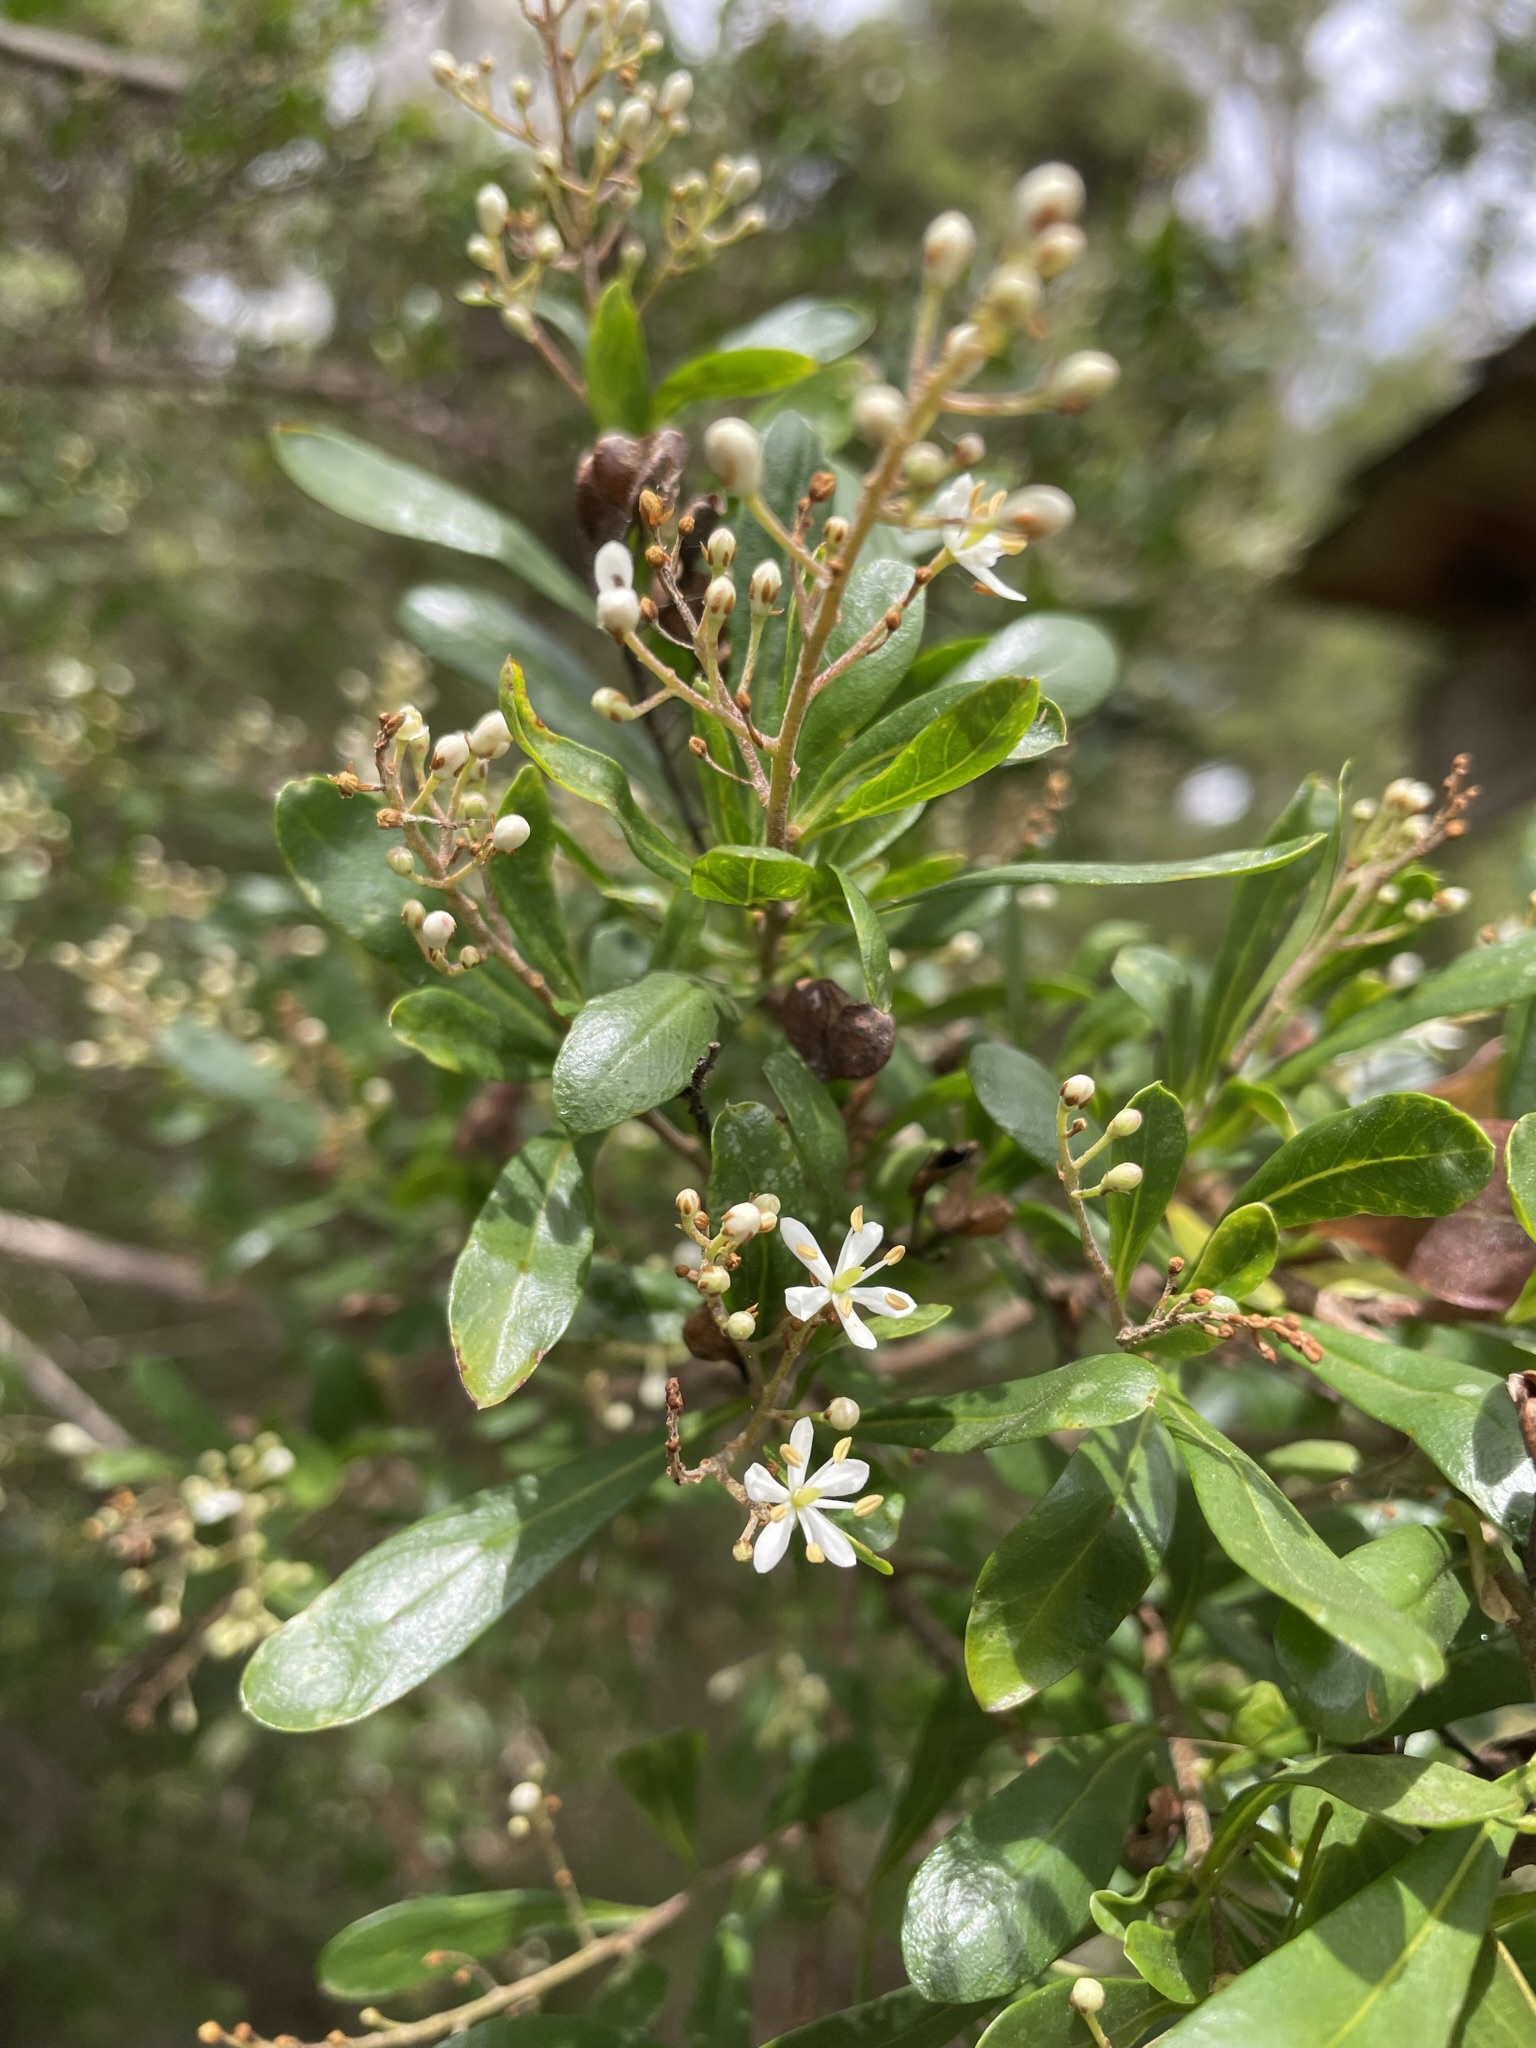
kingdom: Plantae
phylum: Tracheophyta
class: Magnoliopsida
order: Apiales
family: Pittosporaceae
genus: Bursaria
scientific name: Bursaria spinosa
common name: Australian blackthorn
